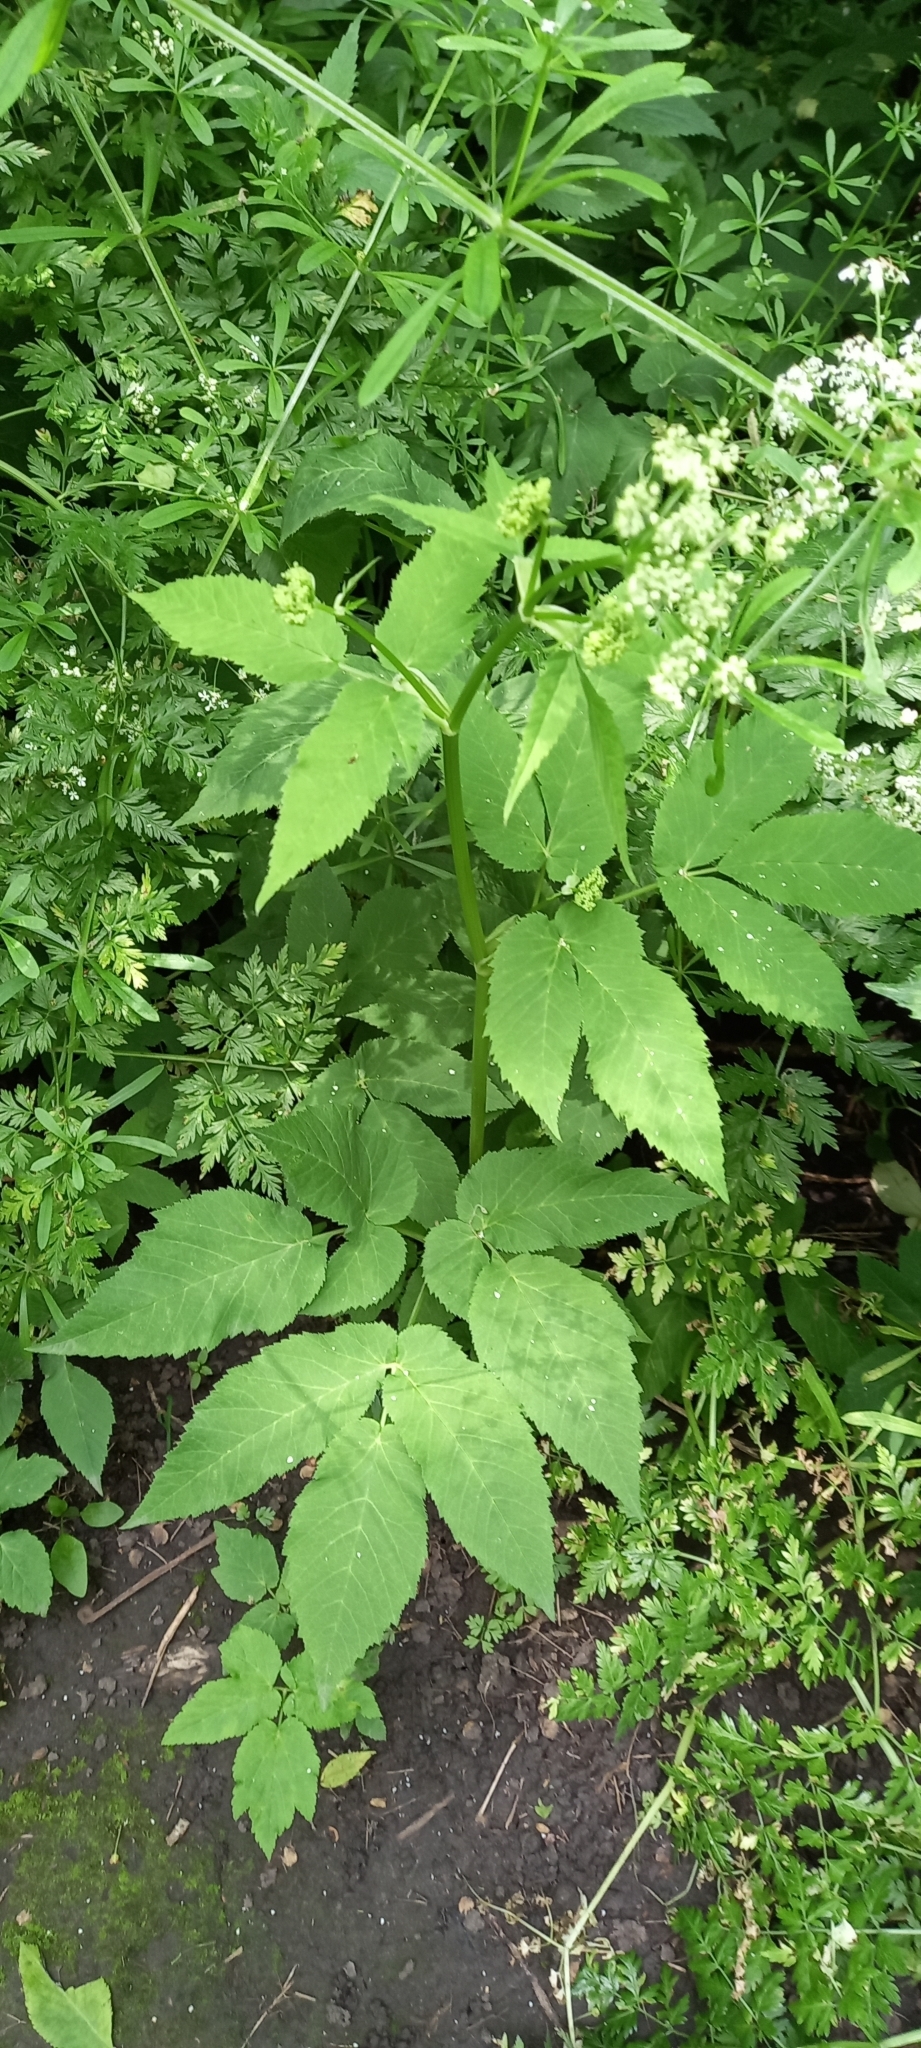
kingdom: Plantae
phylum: Tracheophyta
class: Magnoliopsida
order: Apiales
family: Apiaceae
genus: Aegopodium
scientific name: Aegopodium podagraria
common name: Ground-elder
